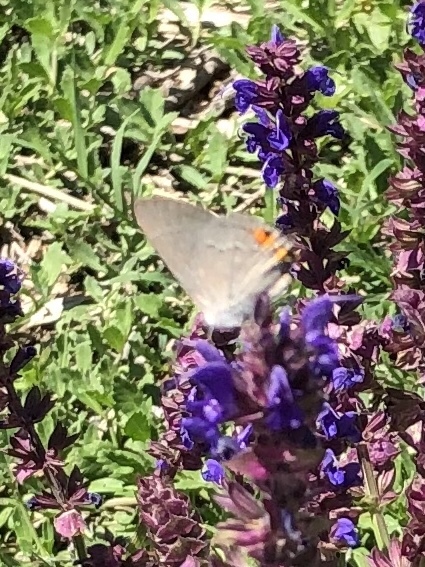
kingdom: Animalia
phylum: Arthropoda
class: Insecta
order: Lepidoptera
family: Lycaenidae
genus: Strymon
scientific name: Strymon melinus
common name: Gray hairstreak
